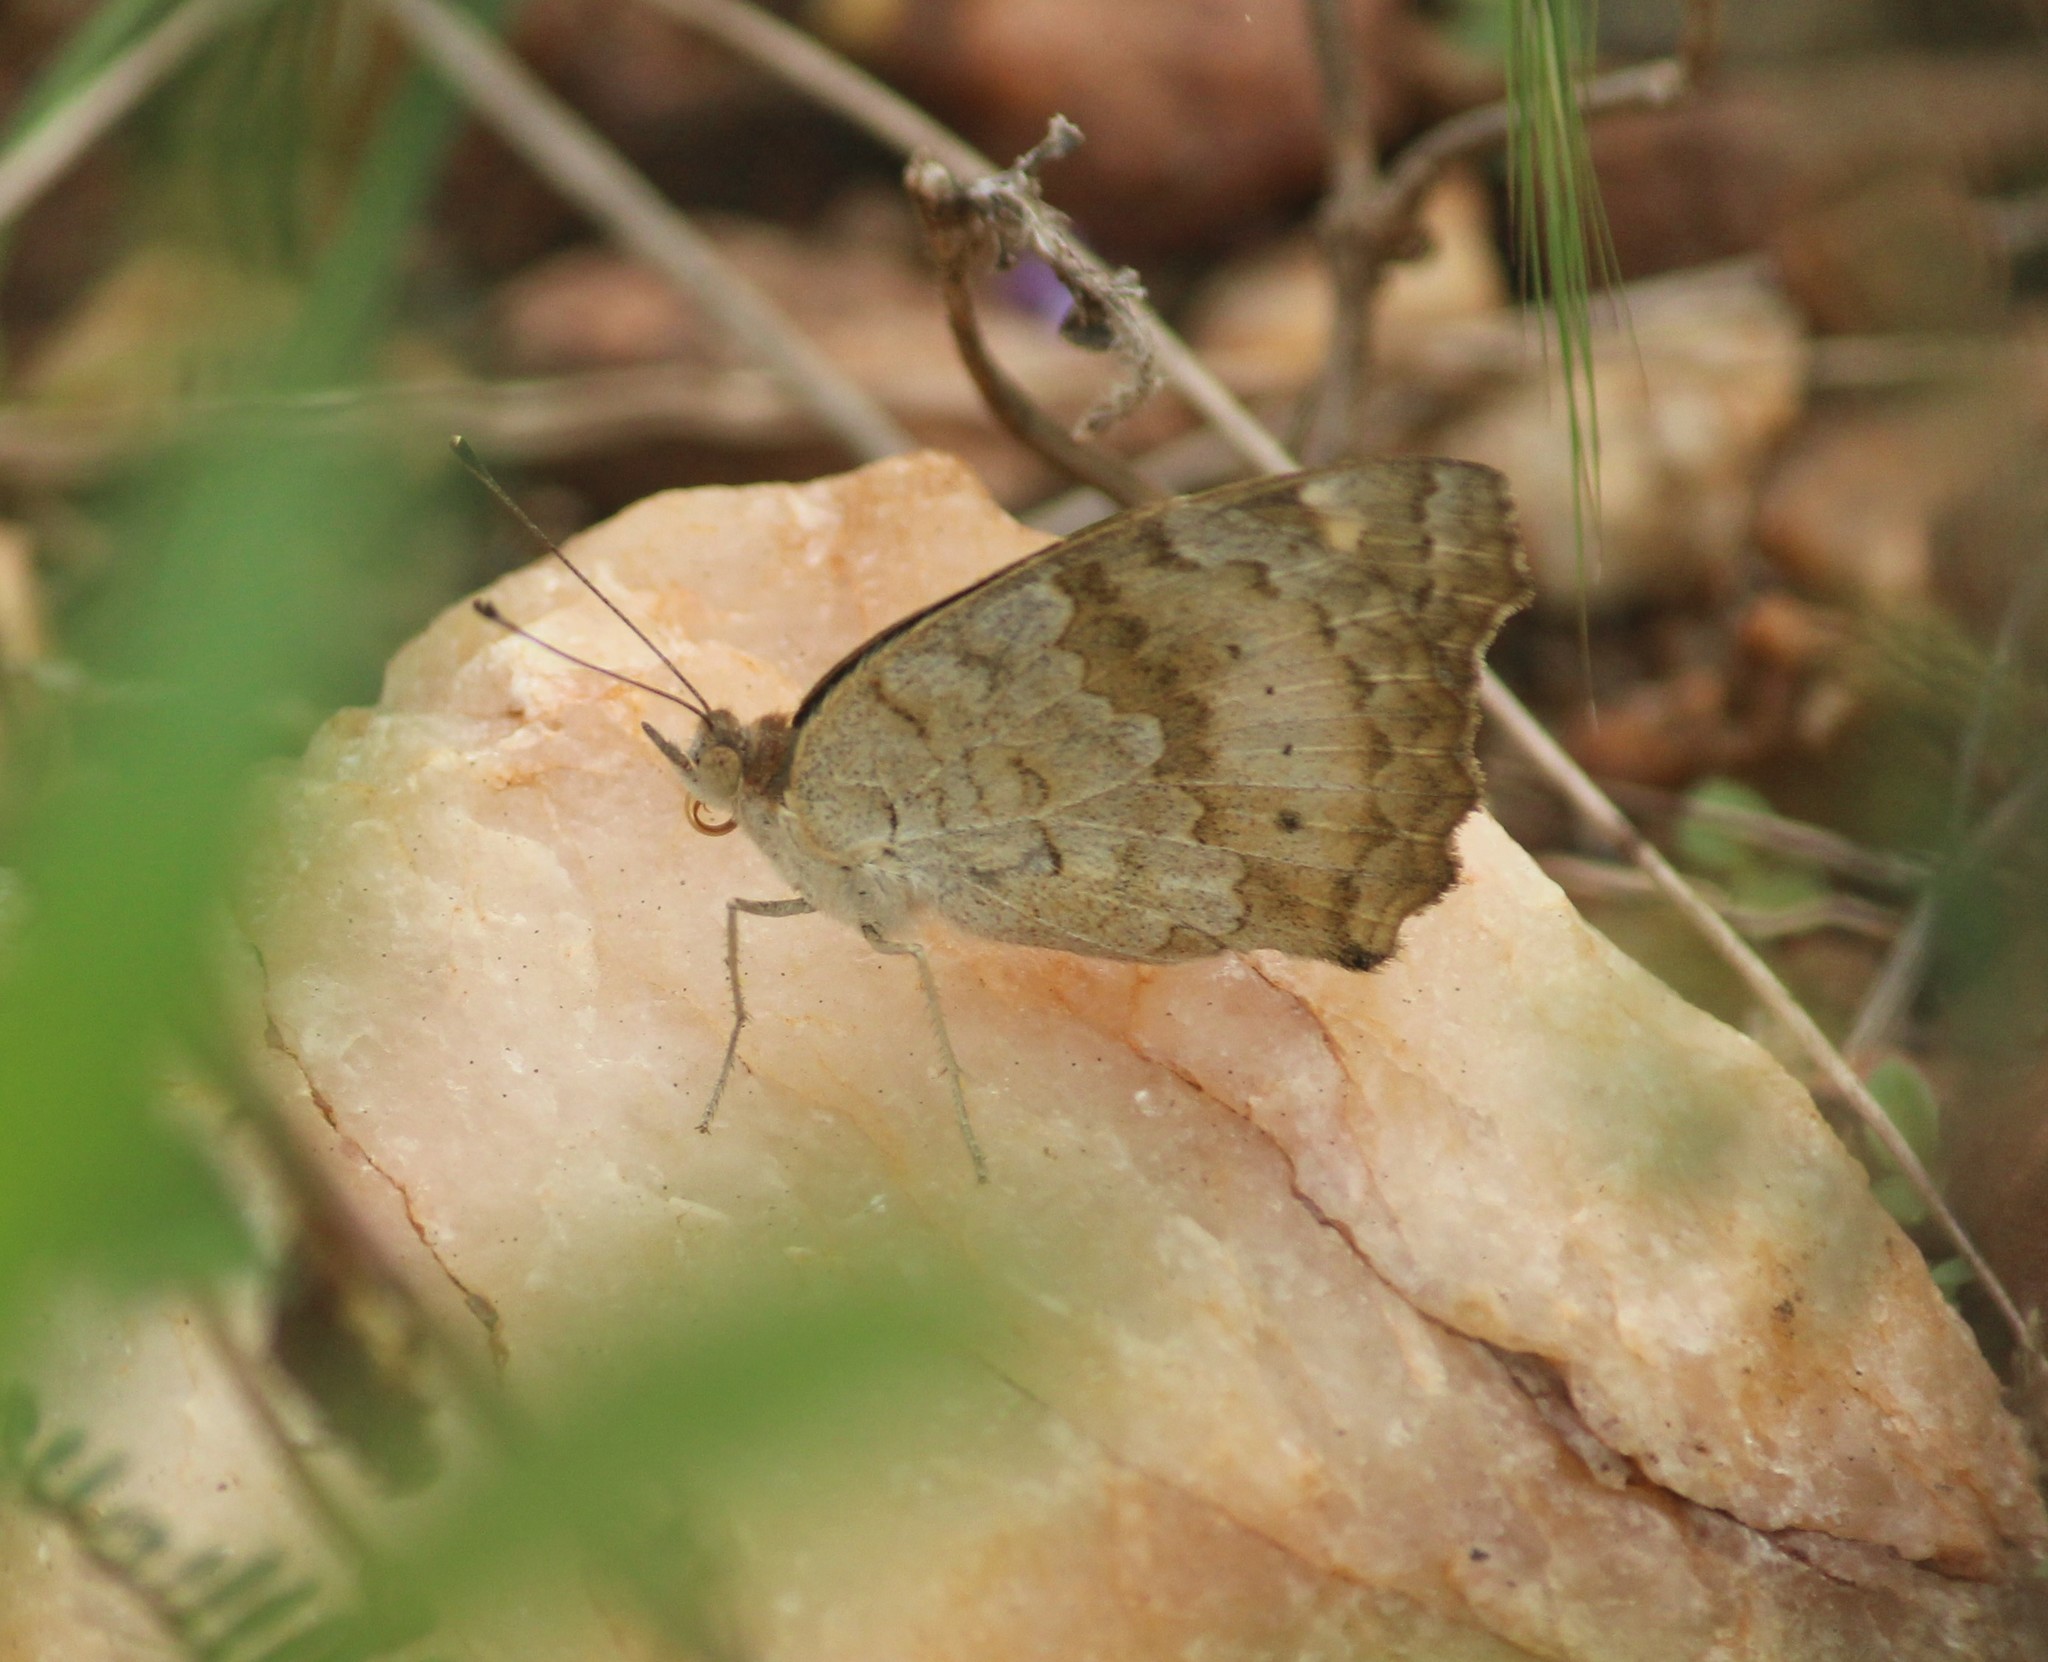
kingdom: Animalia
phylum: Arthropoda
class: Insecta
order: Lepidoptera
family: Nymphalidae
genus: Junonia
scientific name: Junonia hierta
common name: Yellow pansy
